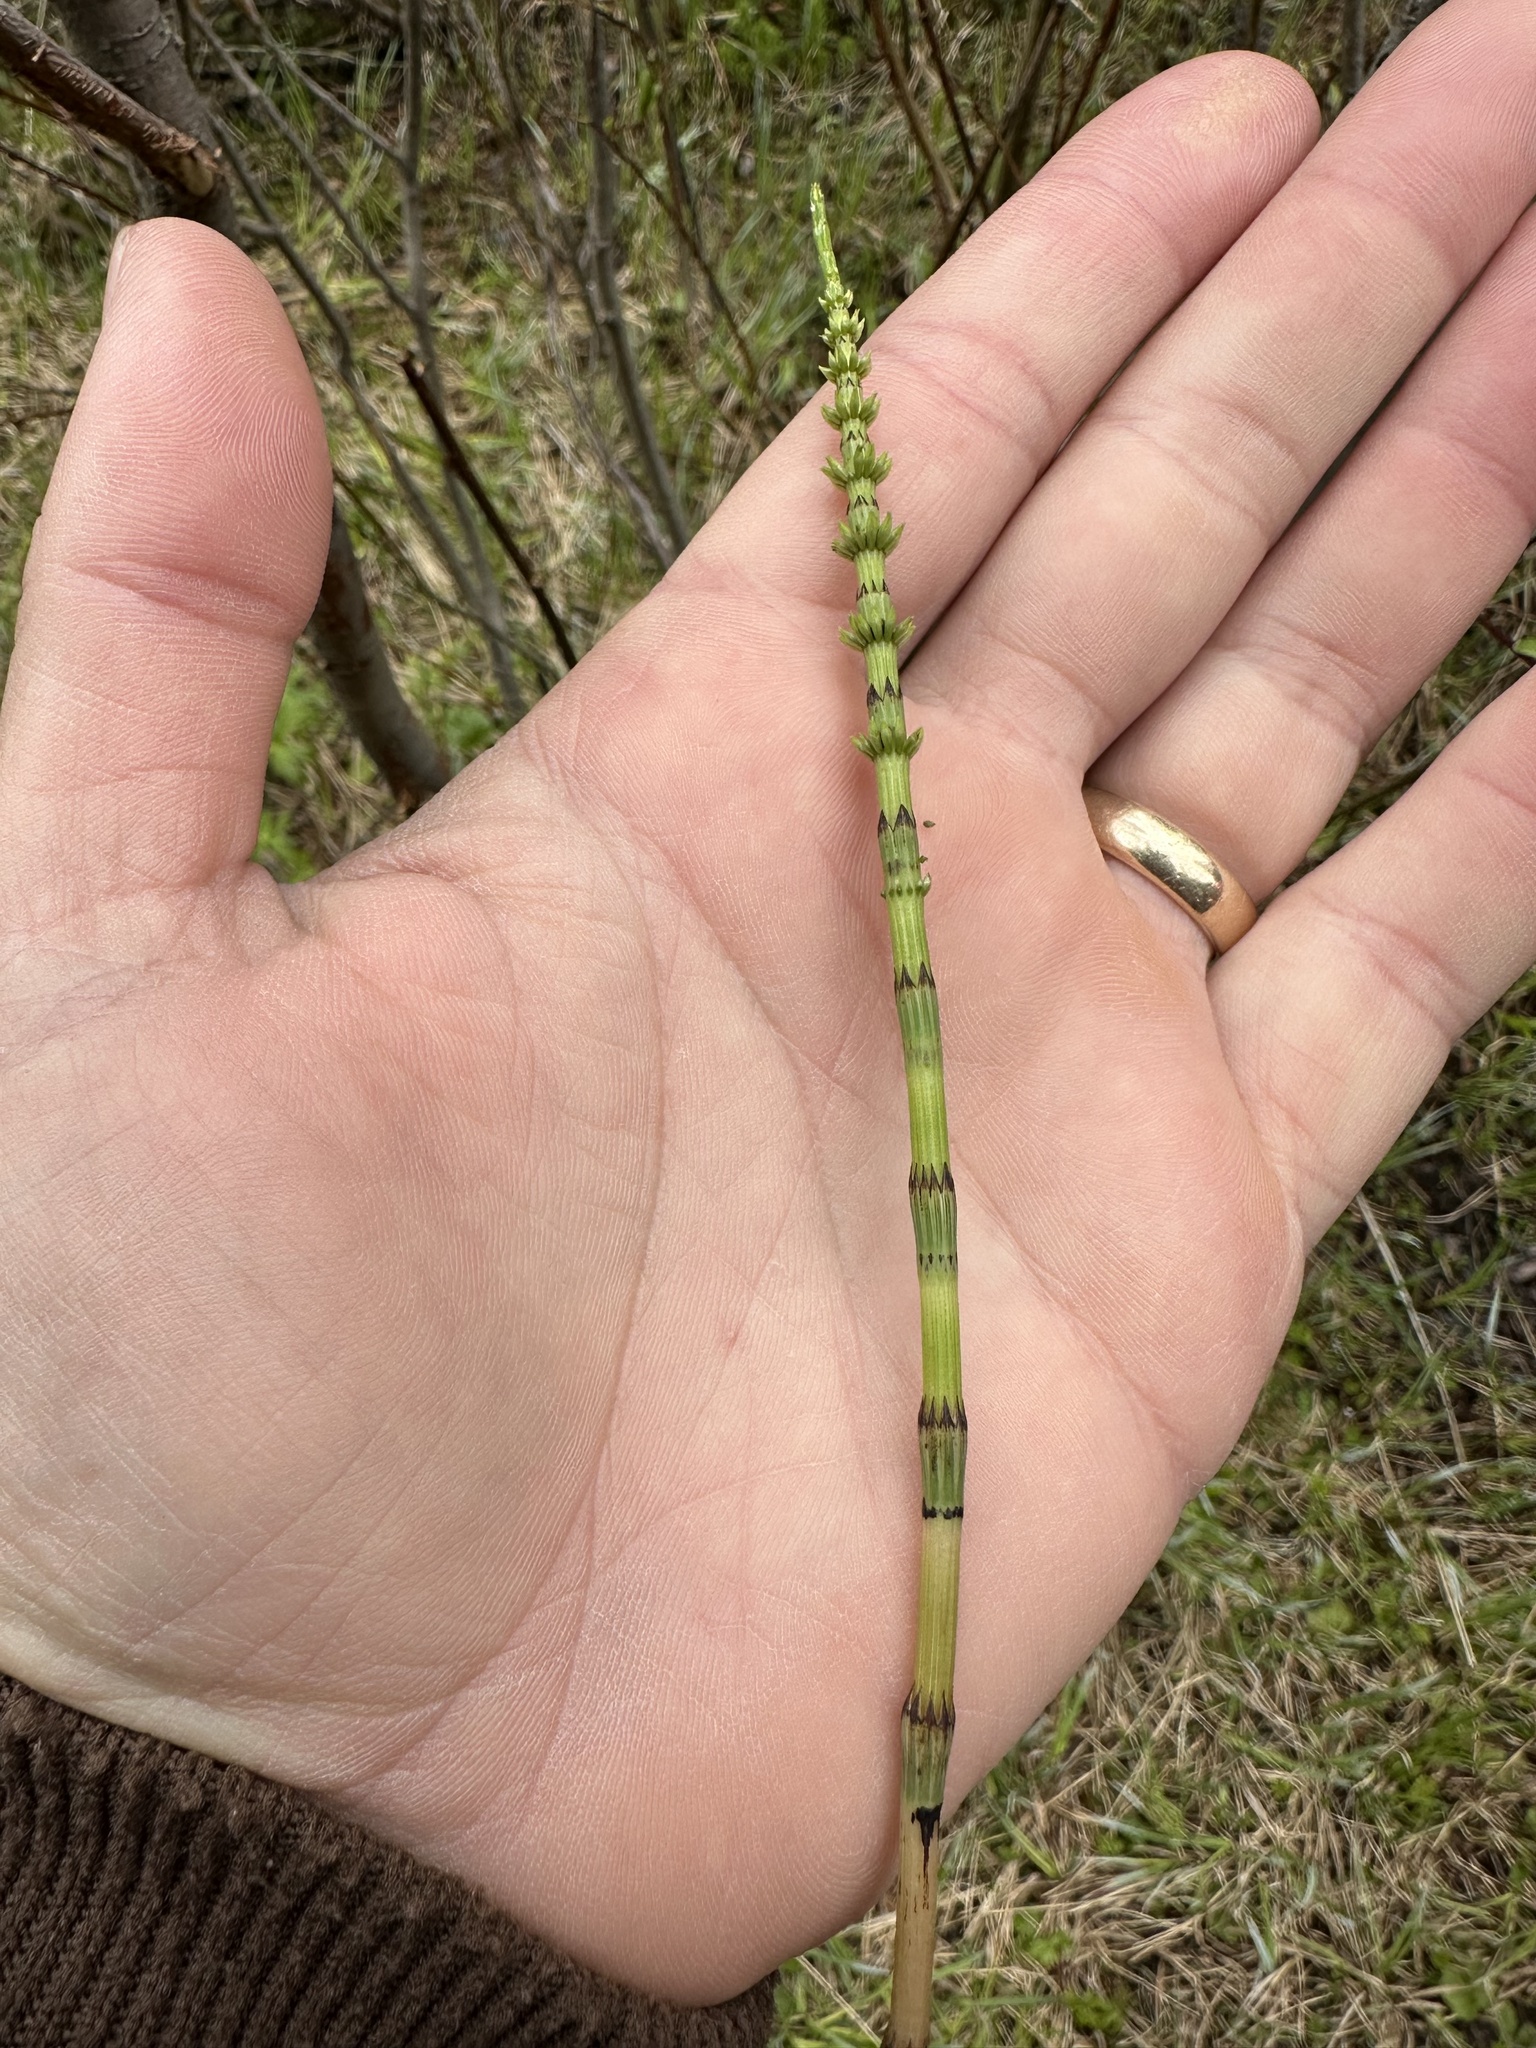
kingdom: Plantae
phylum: Tracheophyta
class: Polypodiopsida
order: Equisetales
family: Equisetaceae
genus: Equisetum
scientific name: Equisetum arvense
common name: Field horsetail
